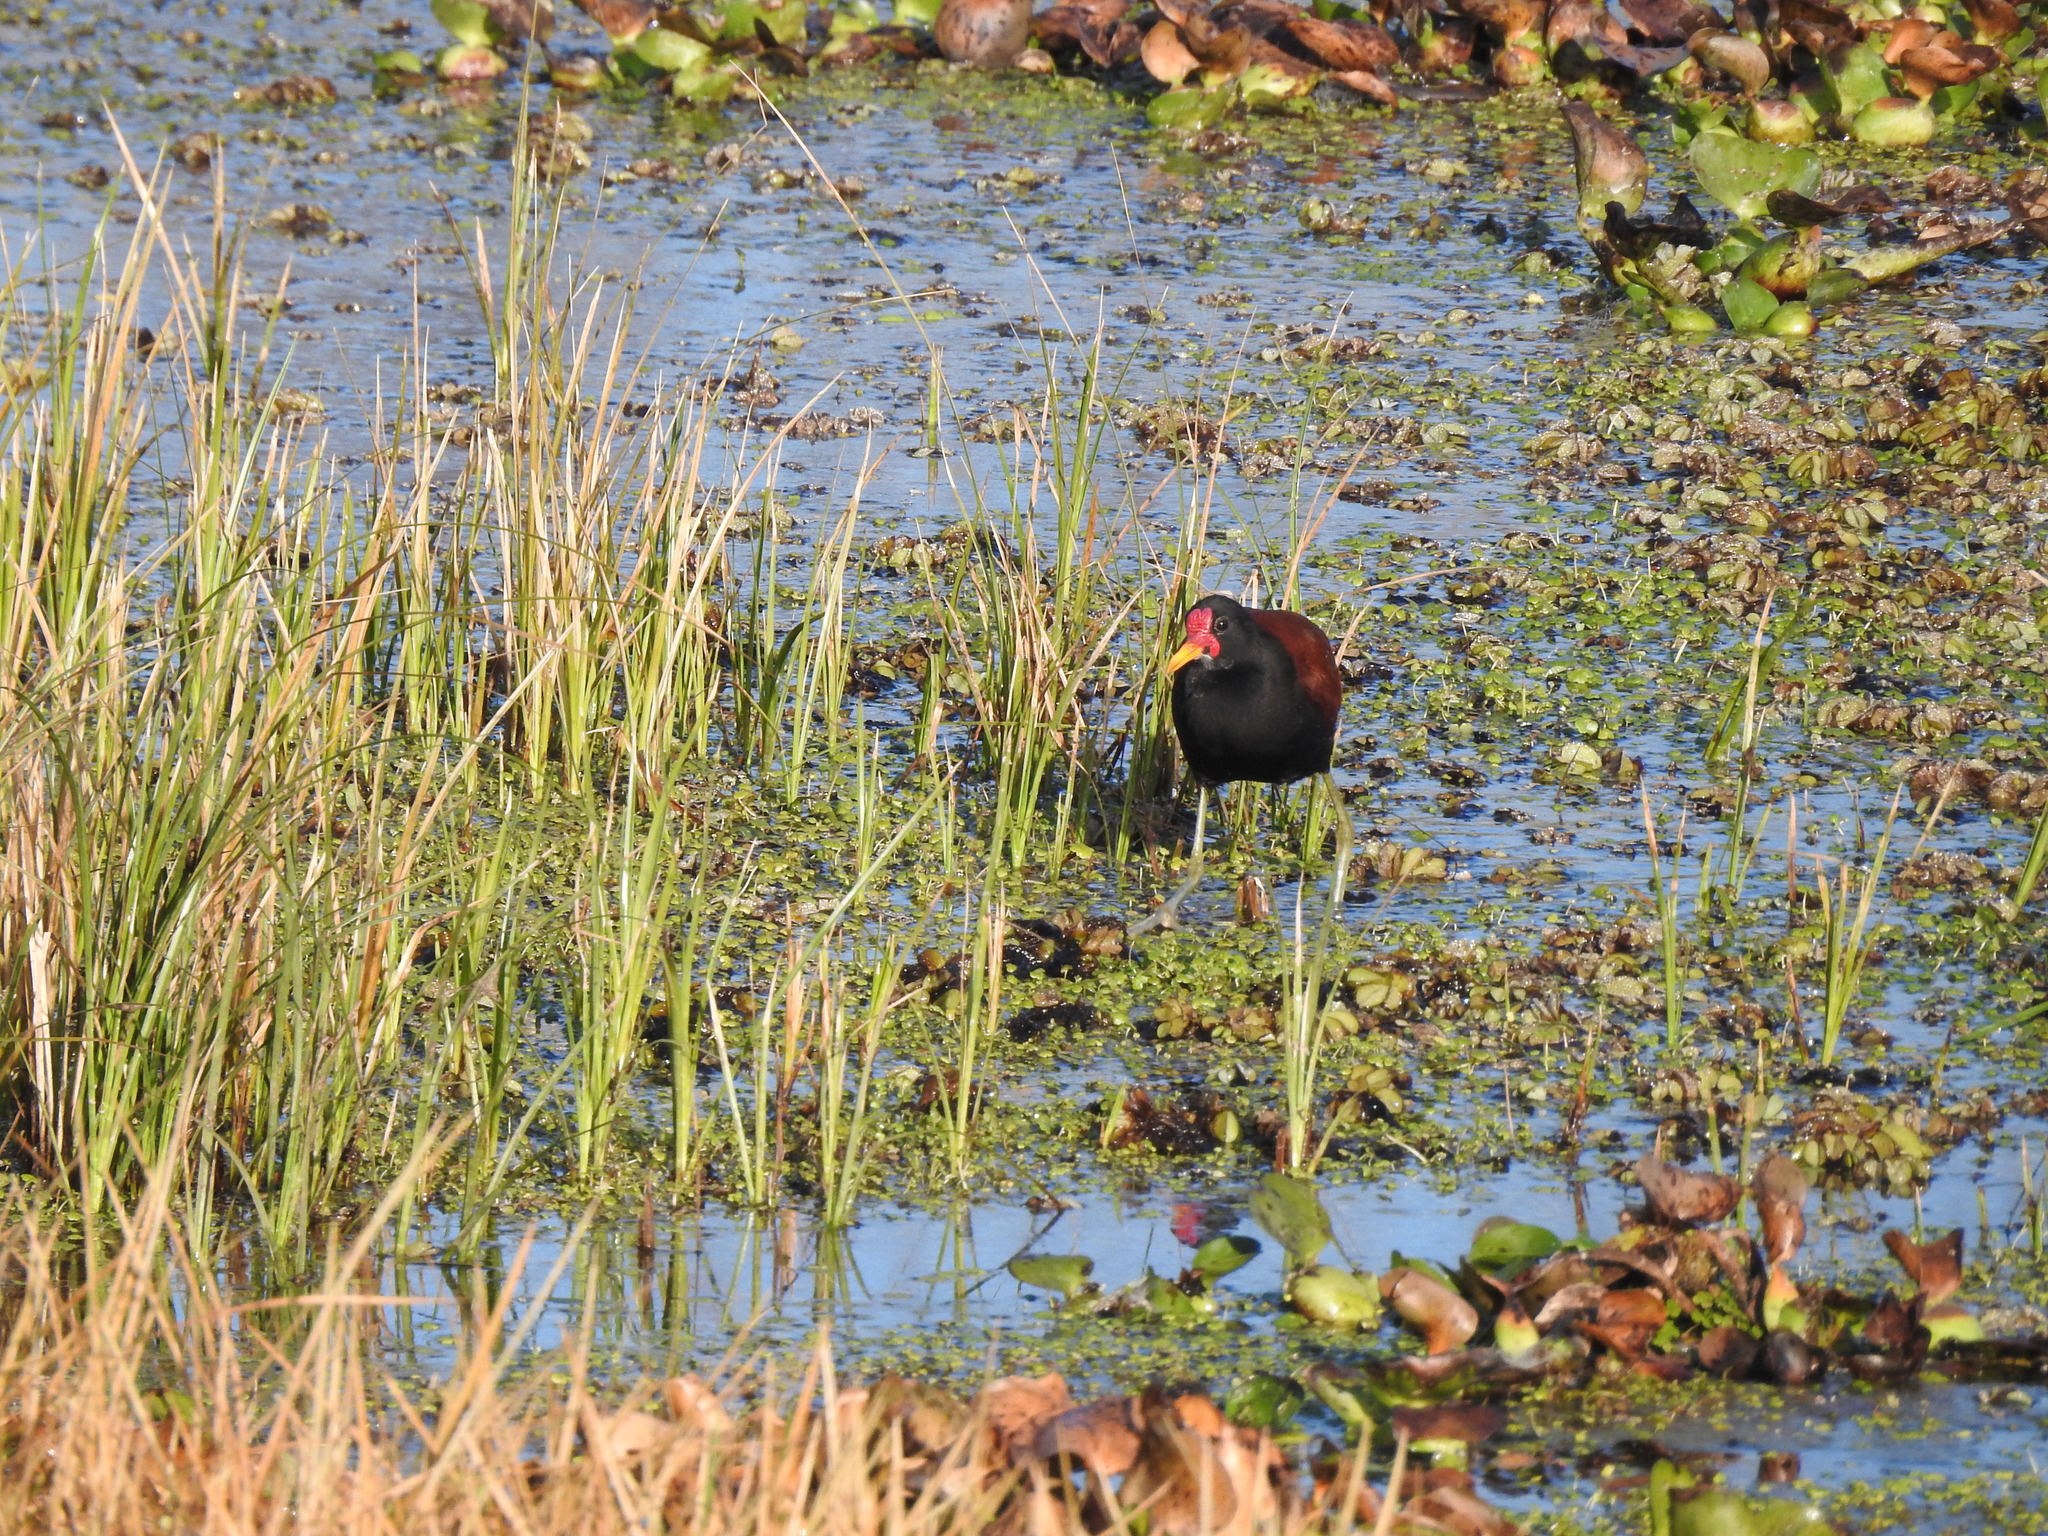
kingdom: Animalia
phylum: Chordata
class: Aves
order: Charadriiformes
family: Jacanidae
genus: Jacana
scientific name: Jacana jacana
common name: Wattled jacana
